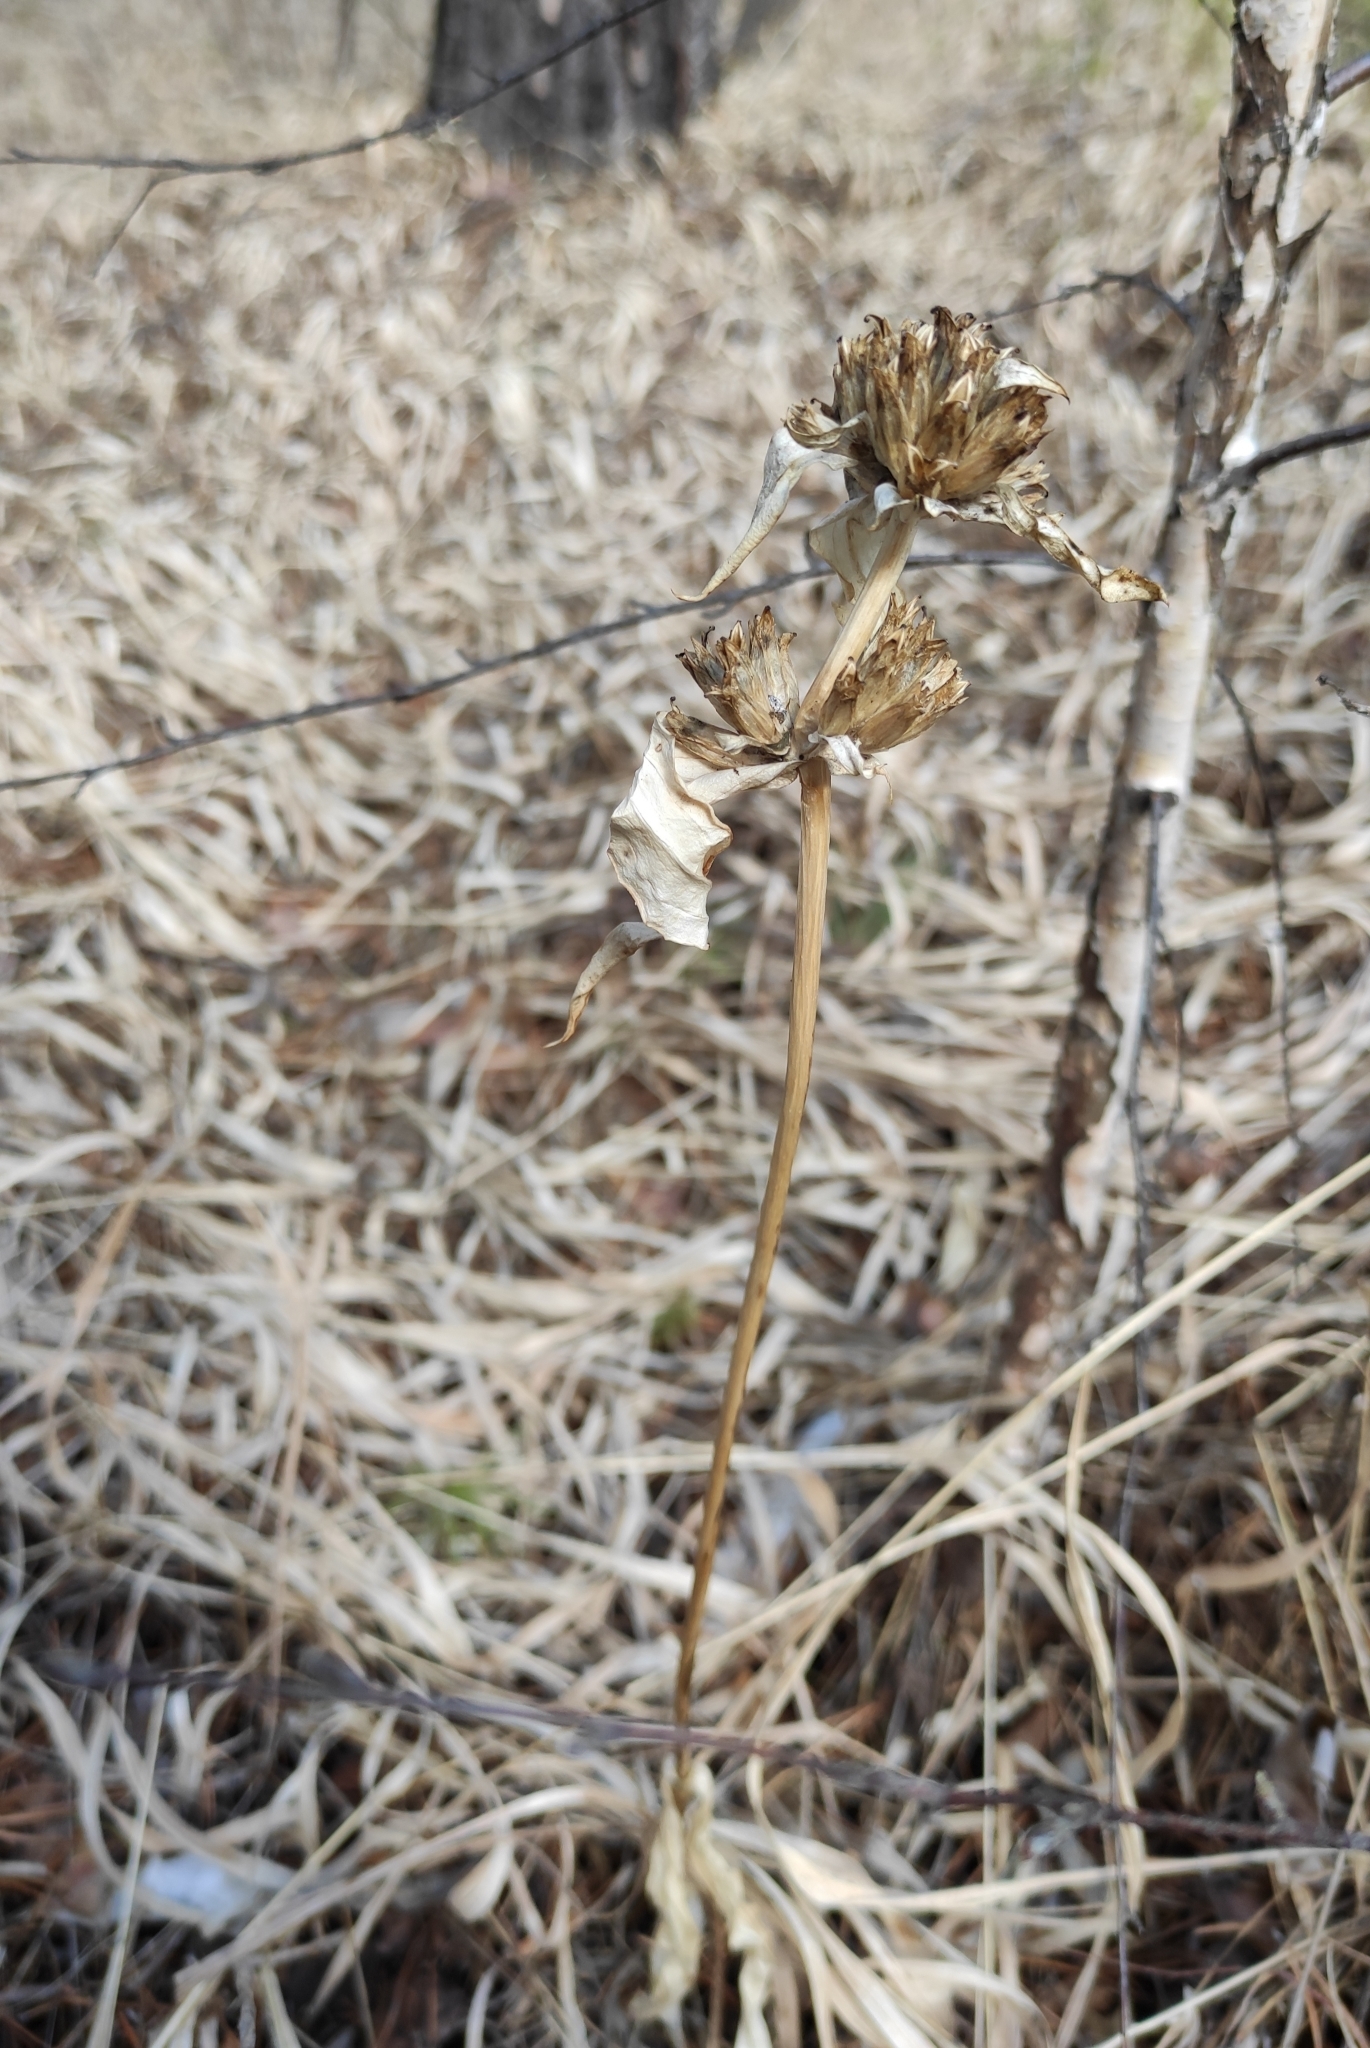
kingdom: Plantae
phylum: Tracheophyta
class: Magnoliopsida
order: Gentianales
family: Gentianaceae
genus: Gentiana
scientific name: Gentiana macrophylla
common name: Large-leaf gentian
